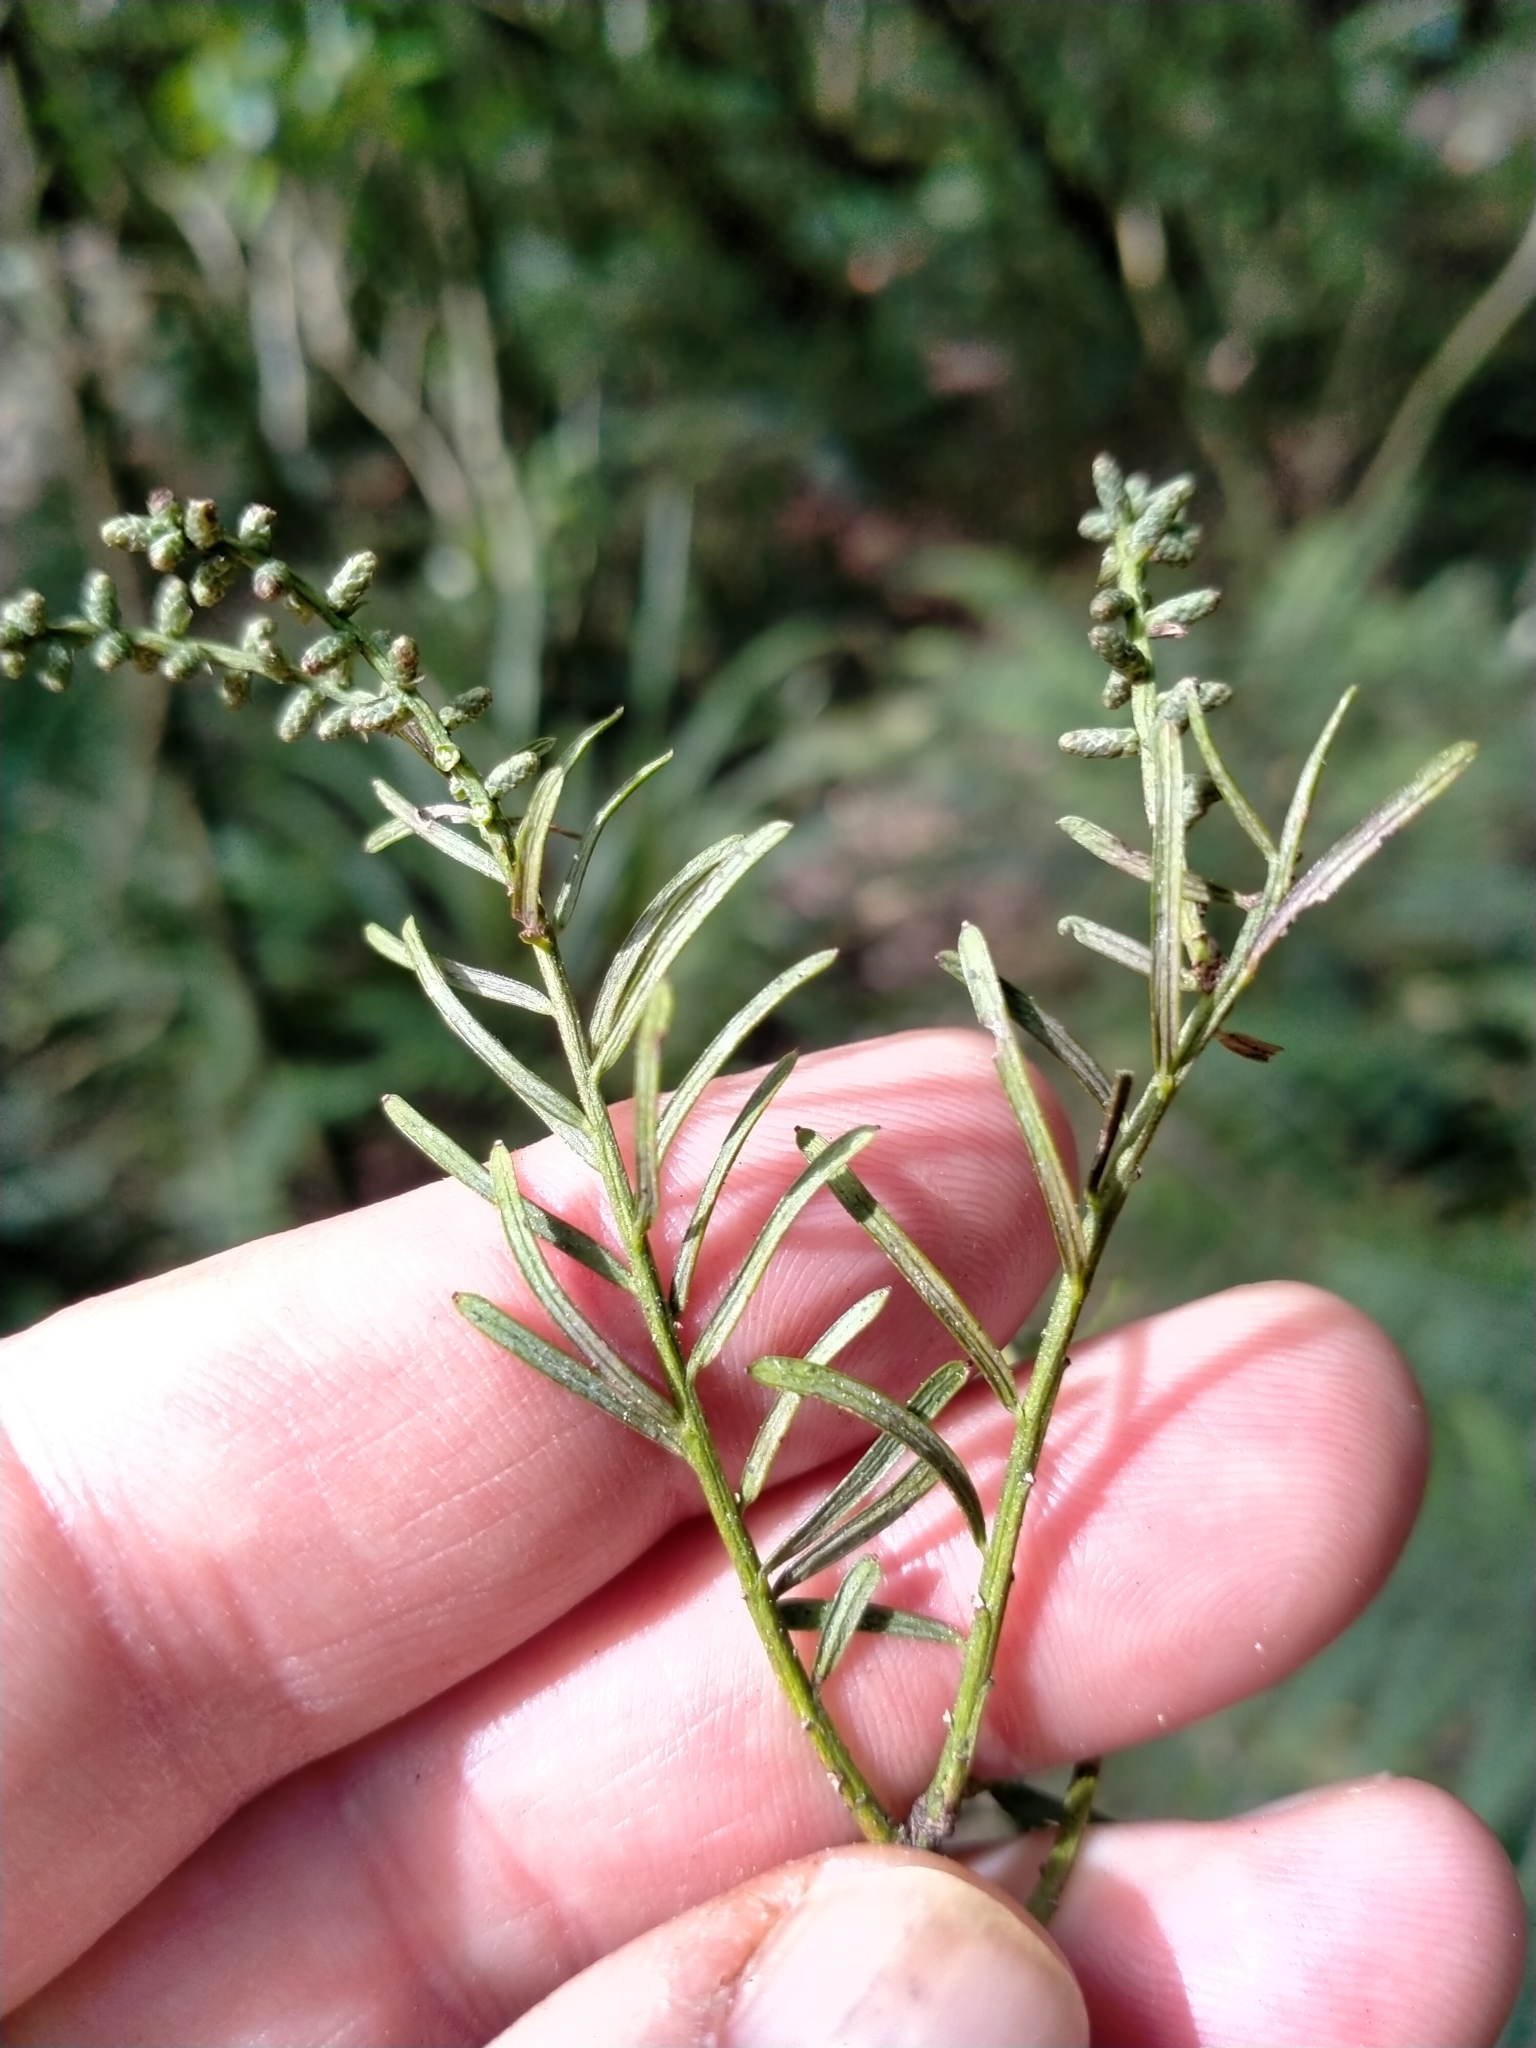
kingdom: Plantae
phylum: Tracheophyta
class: Pinopsida
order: Pinales
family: Podocarpaceae
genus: Prumnopitys
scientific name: Prumnopitys taxifolia
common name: Matai
